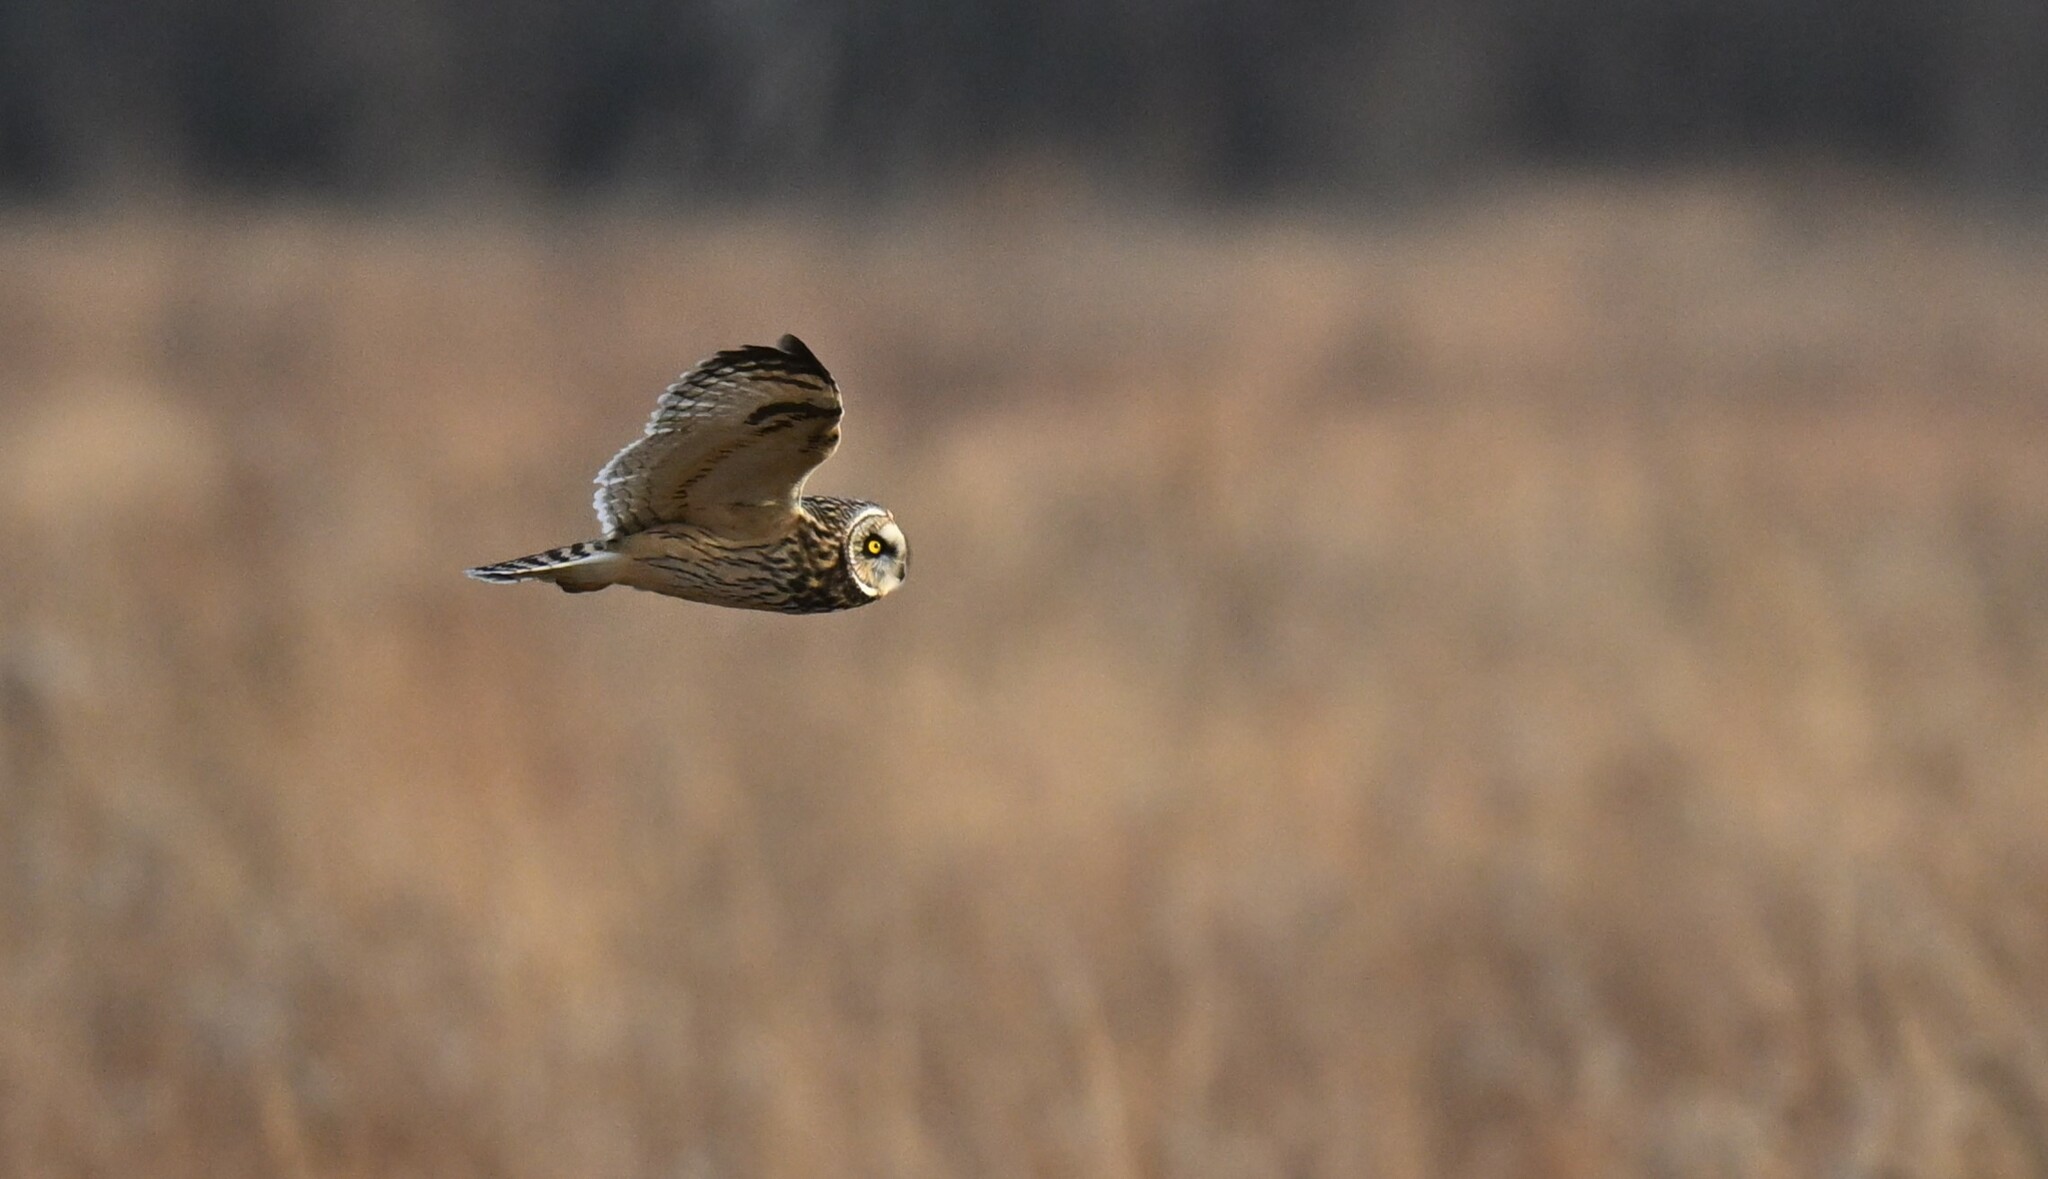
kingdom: Animalia
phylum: Chordata
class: Aves
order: Strigiformes
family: Strigidae
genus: Asio
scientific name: Asio flammeus
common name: Short-eared owl
